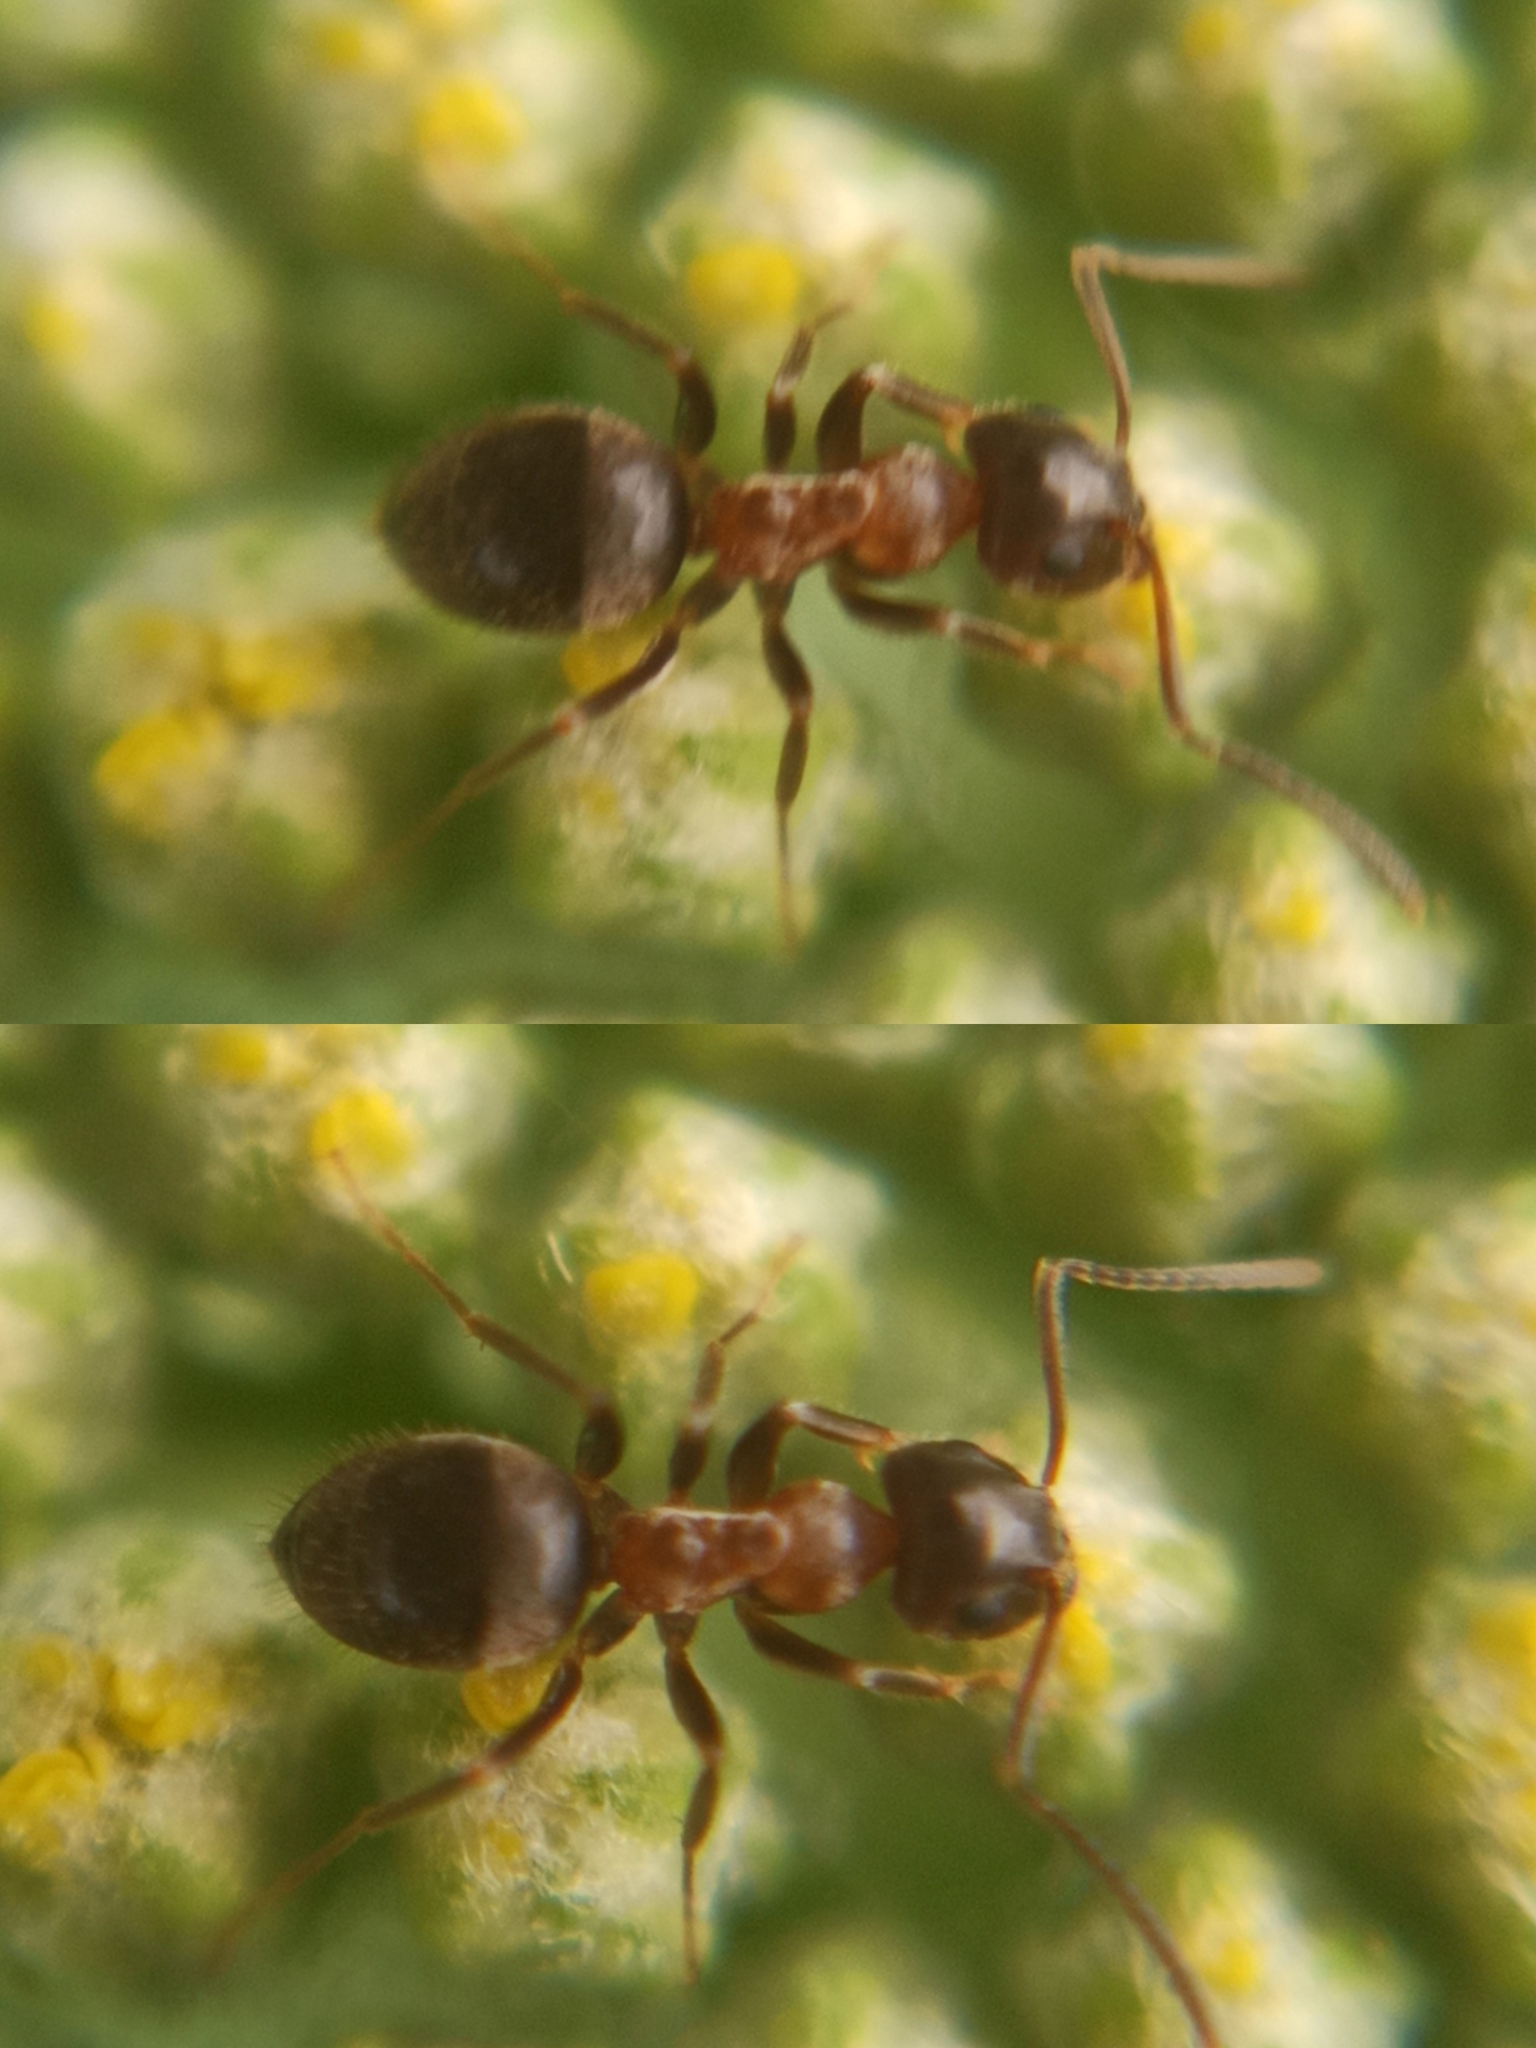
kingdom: Animalia
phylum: Arthropoda
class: Insecta
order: Hymenoptera
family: Formicidae
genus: Lasius
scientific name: Lasius emarginatus
